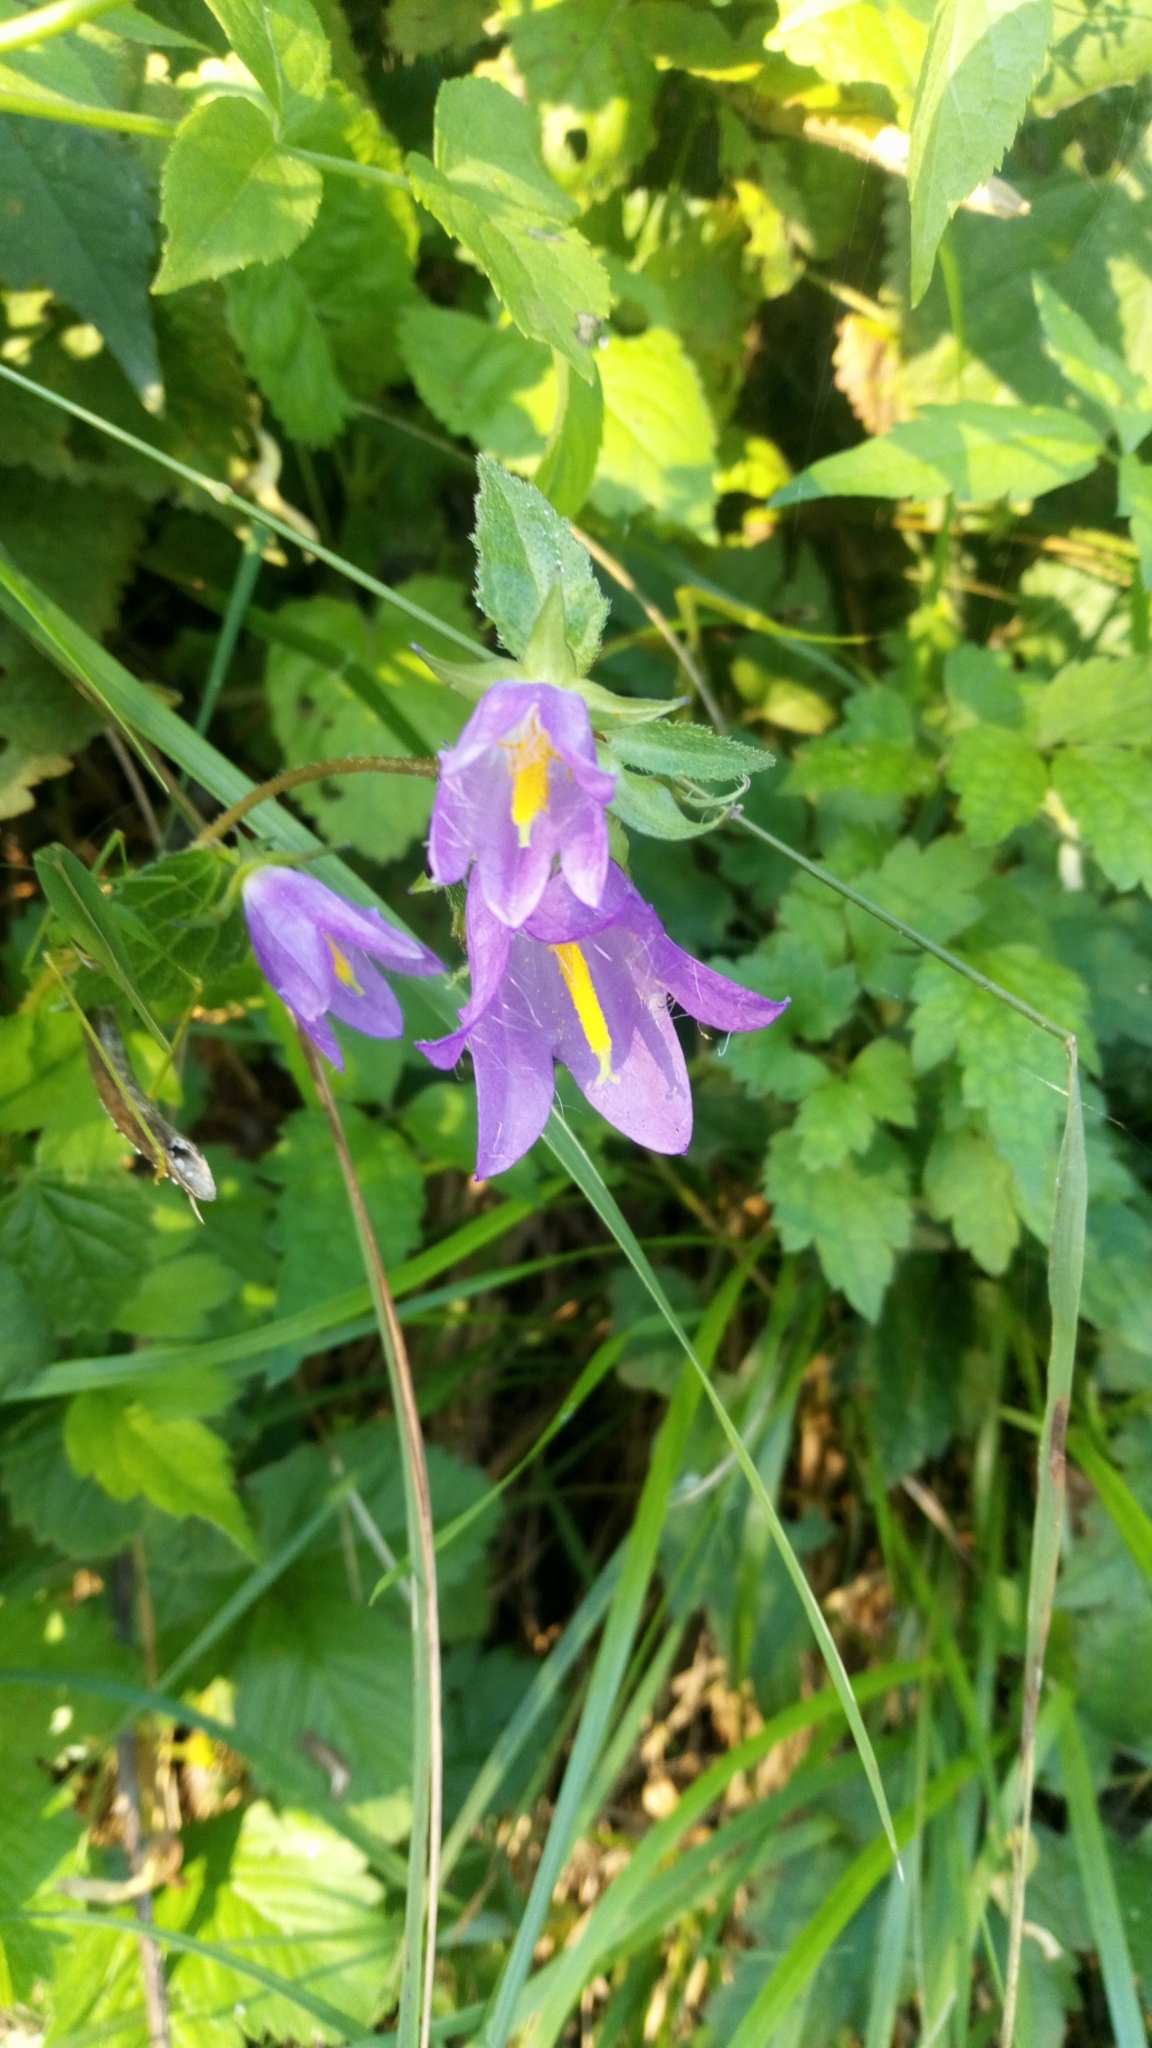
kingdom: Plantae
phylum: Tracheophyta
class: Magnoliopsida
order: Asterales
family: Campanulaceae
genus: Campanula
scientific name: Campanula trachelium
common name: Nettle-leaved bellflower
